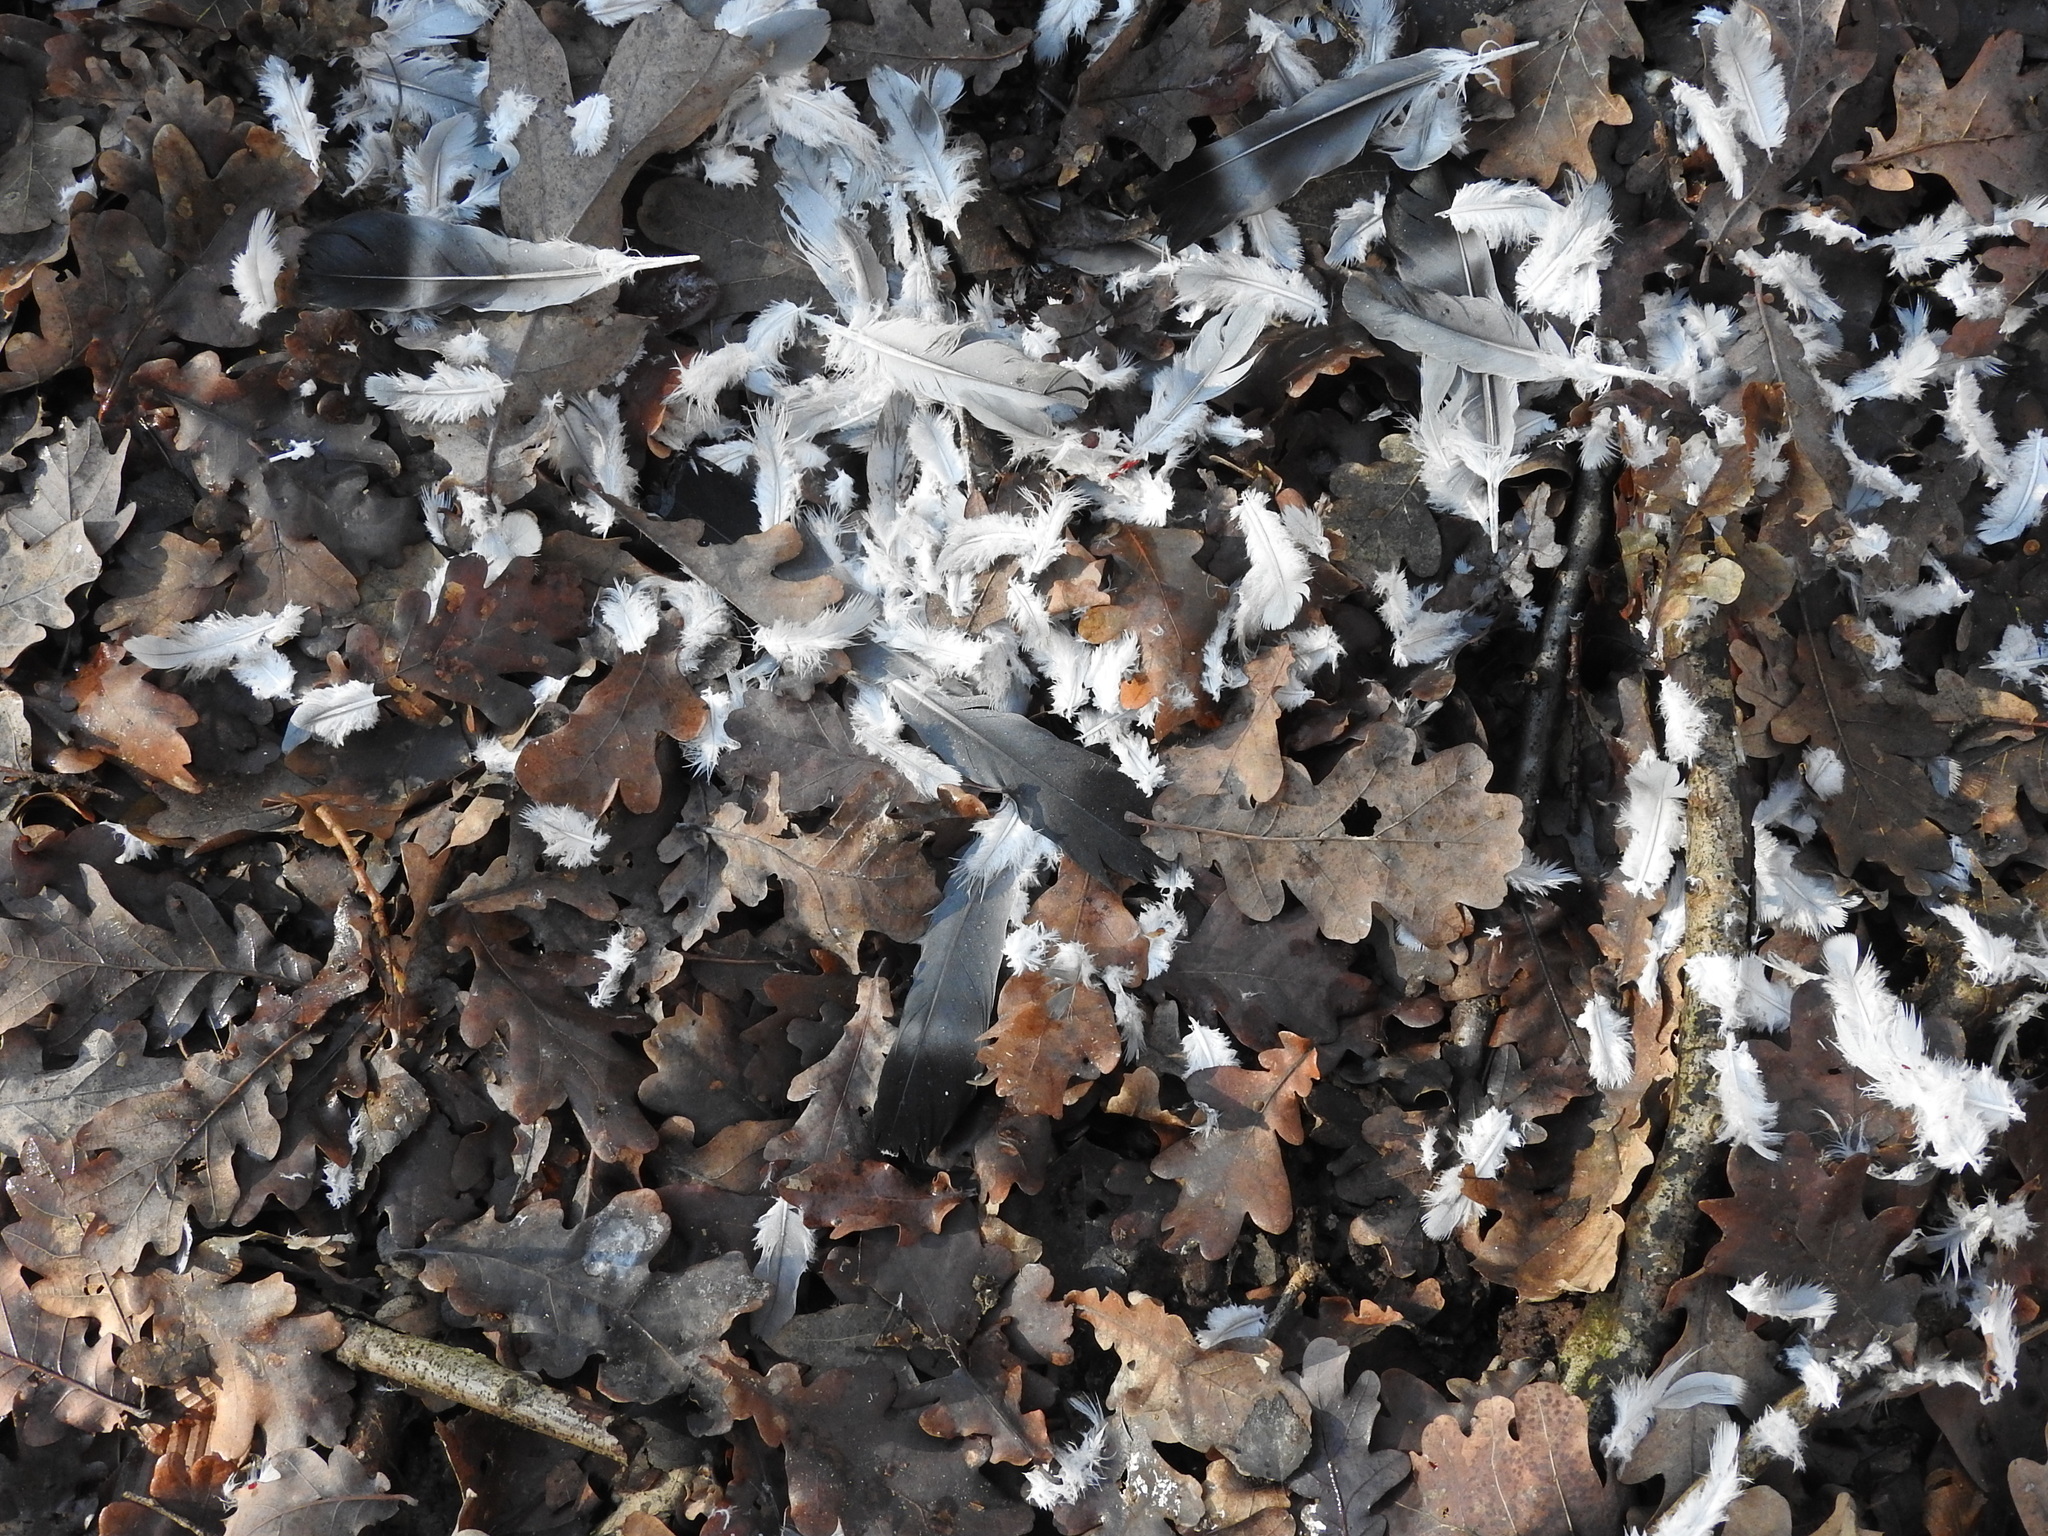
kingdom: Animalia
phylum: Chordata
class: Aves
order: Columbiformes
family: Columbidae
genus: Columba
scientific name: Columba palumbus
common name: Common wood pigeon
